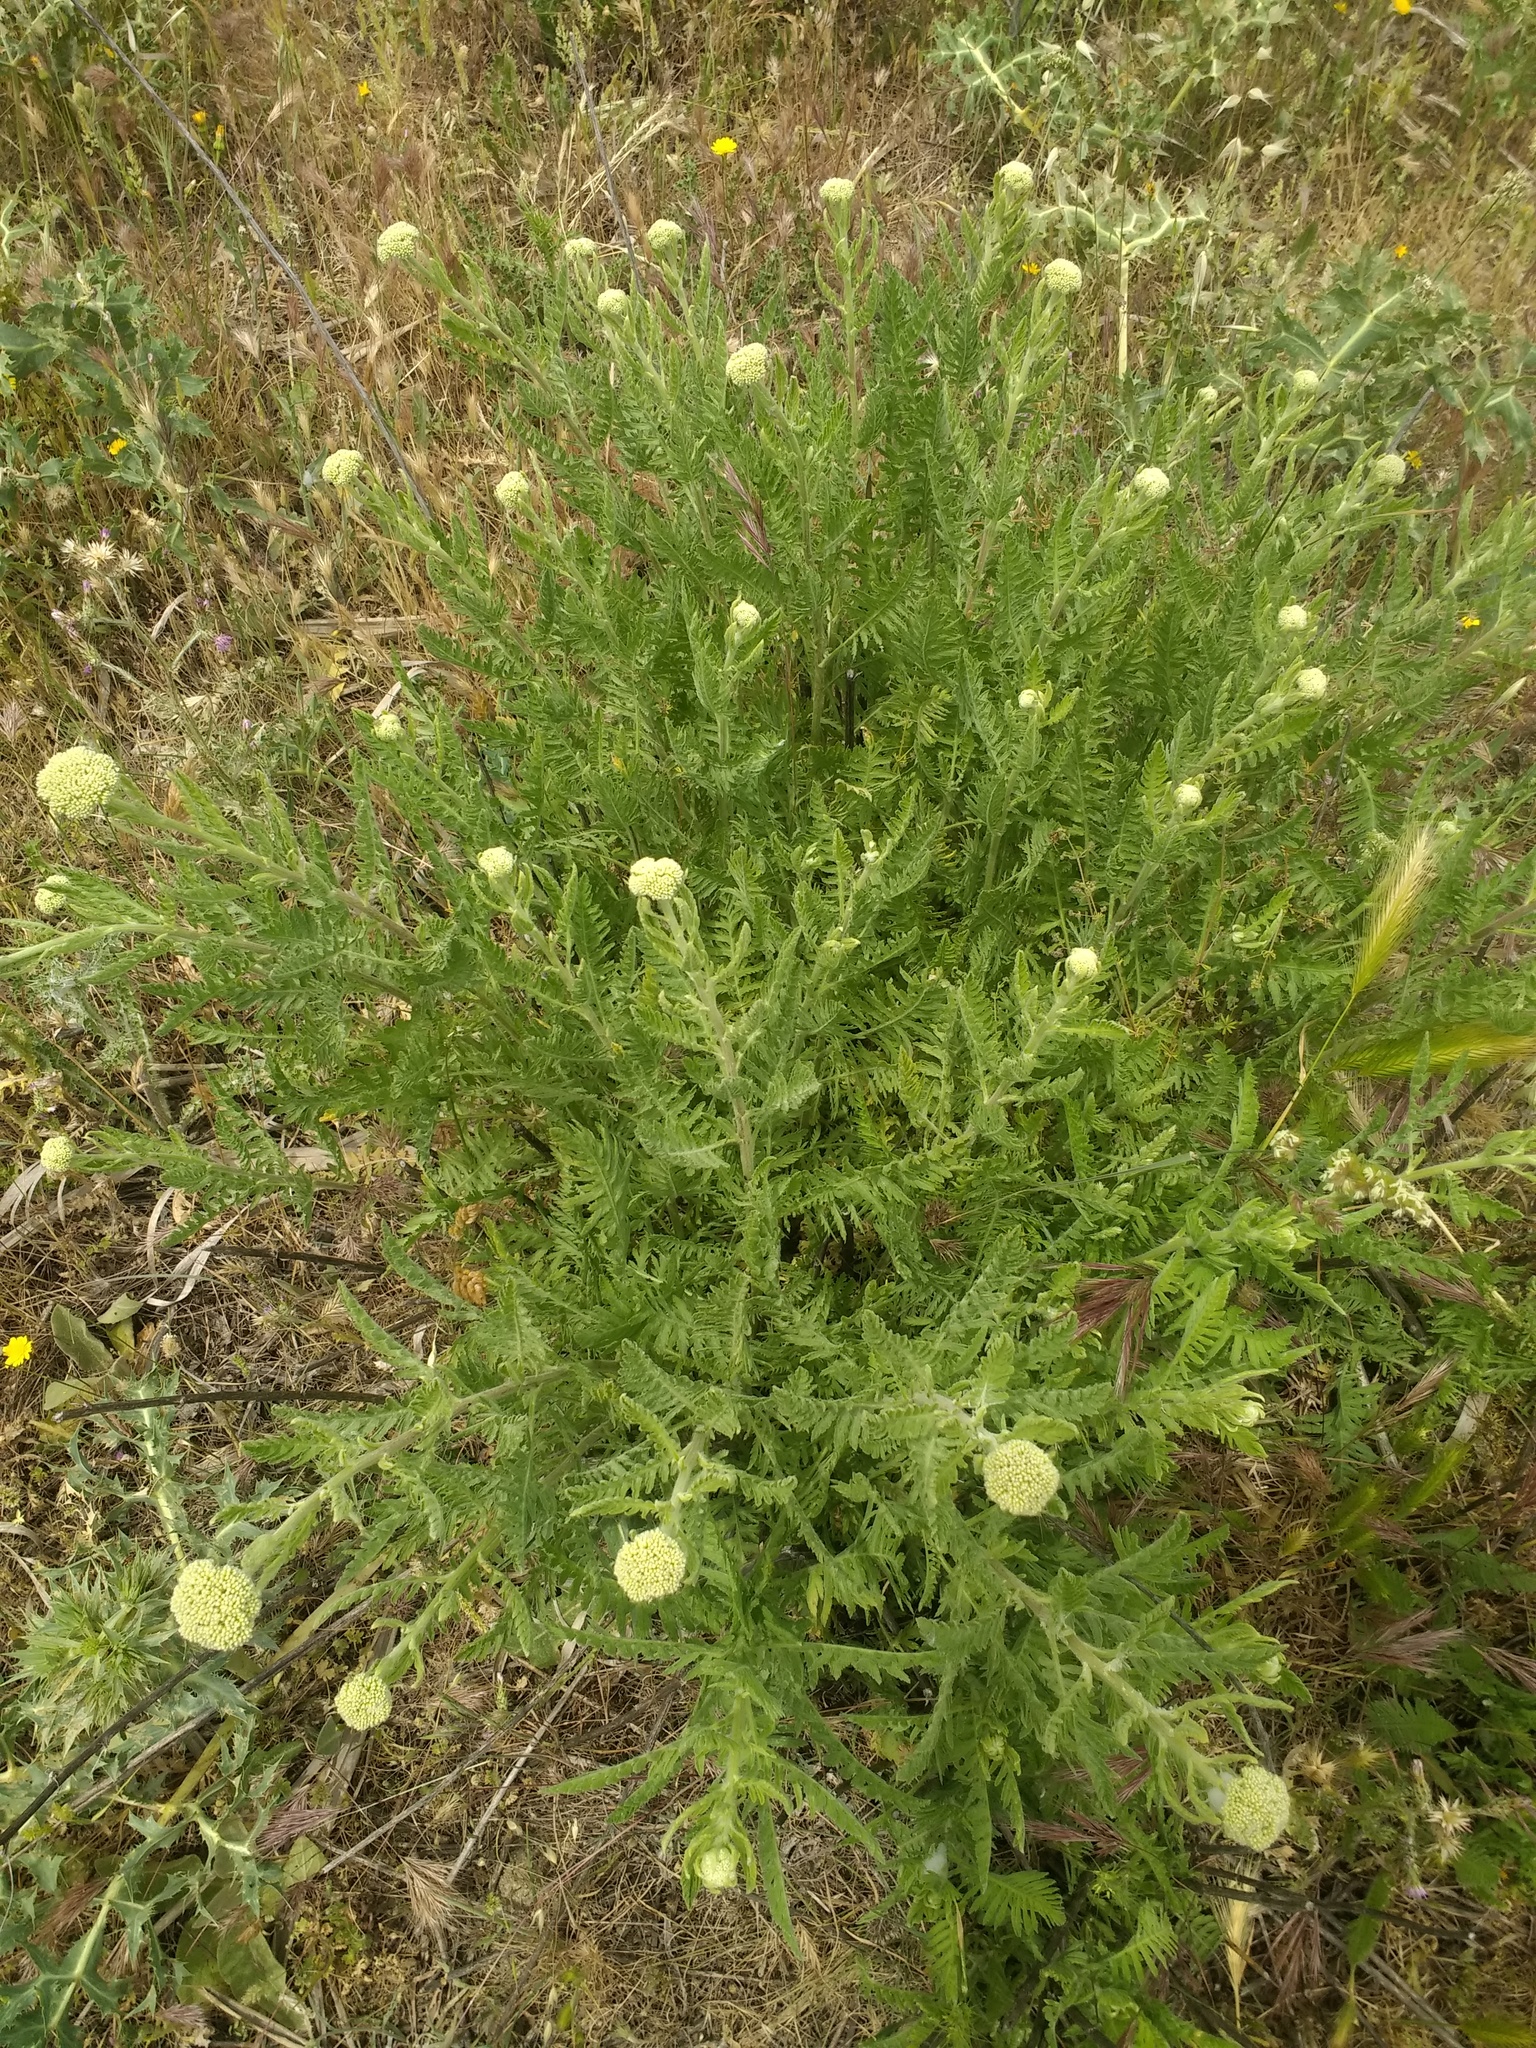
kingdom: Plantae
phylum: Tracheophyta
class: Magnoliopsida
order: Asterales
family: Asteraceae
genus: Achillea
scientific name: Achillea filipendulina
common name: Fernleaf yarrow
